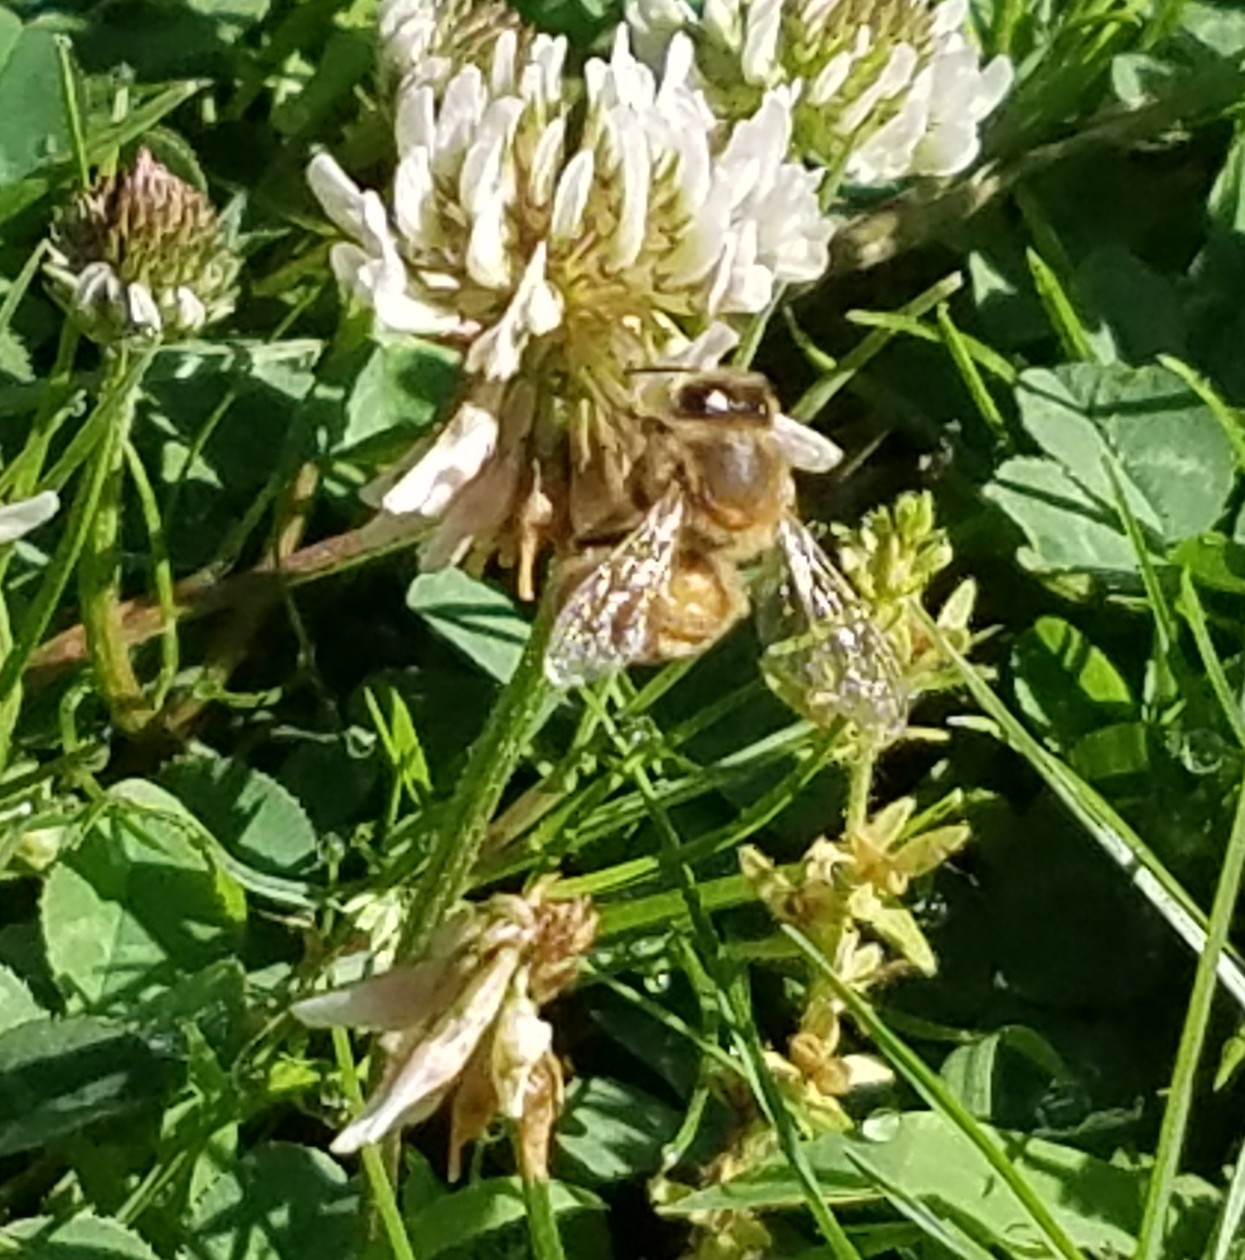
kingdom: Animalia
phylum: Arthropoda
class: Insecta
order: Hymenoptera
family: Apidae
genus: Apis
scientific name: Apis mellifera
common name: Honey bee
